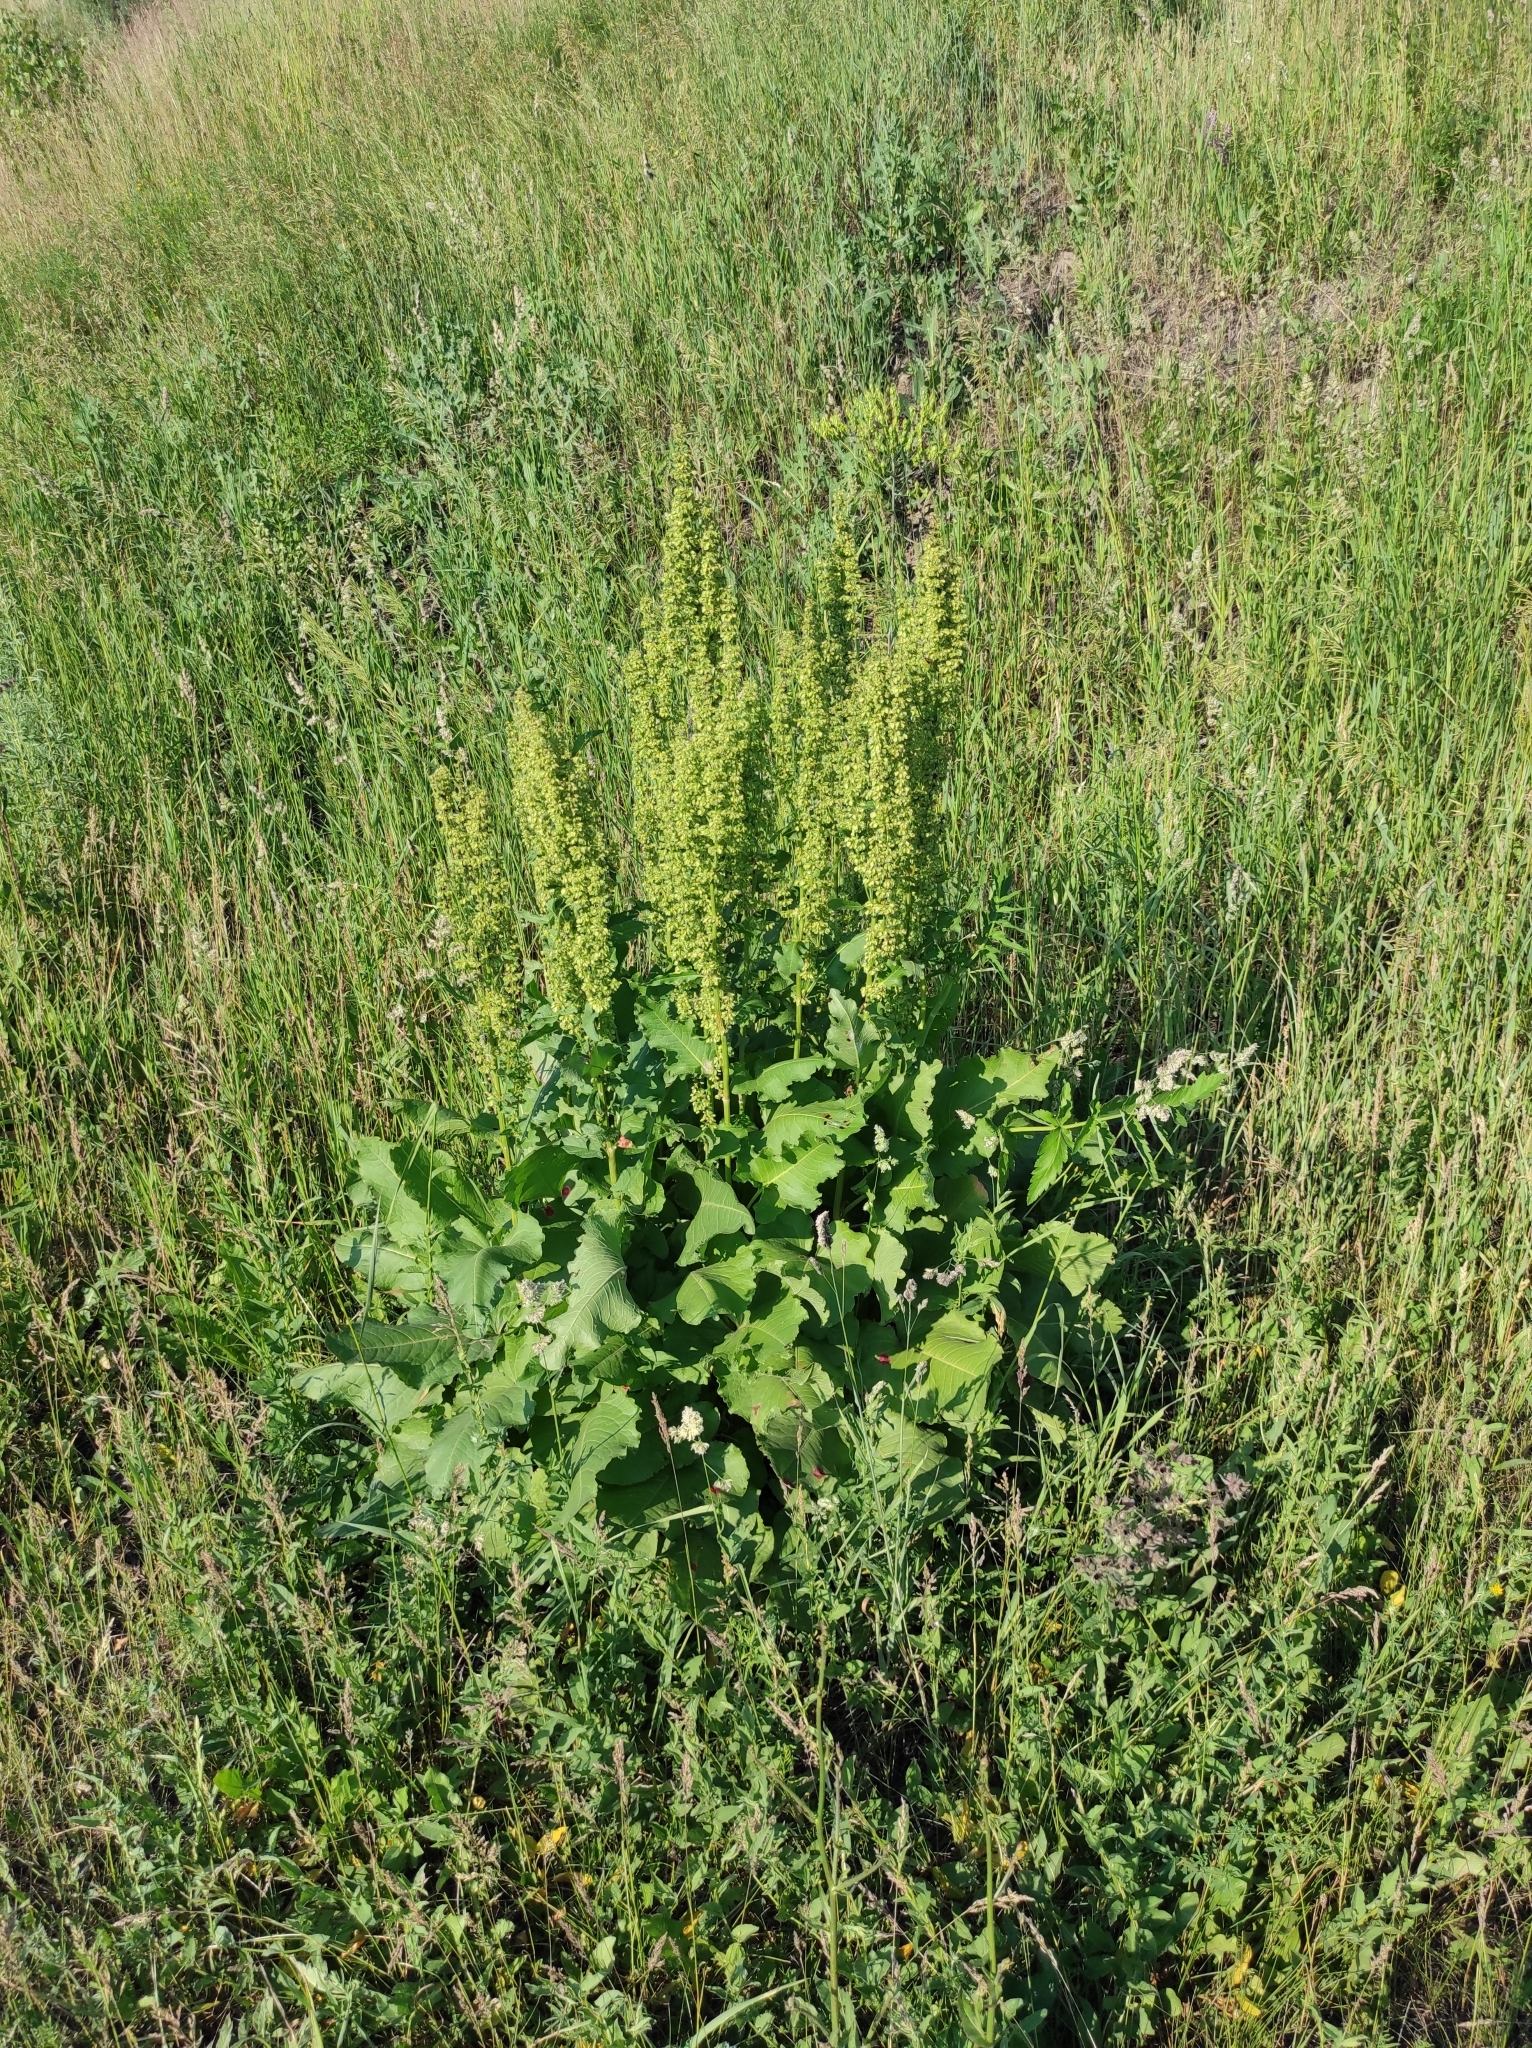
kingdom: Plantae
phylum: Tracheophyta
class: Magnoliopsida
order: Caryophyllales
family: Polygonaceae
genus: Rumex
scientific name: Rumex confertus
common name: Russian dock
